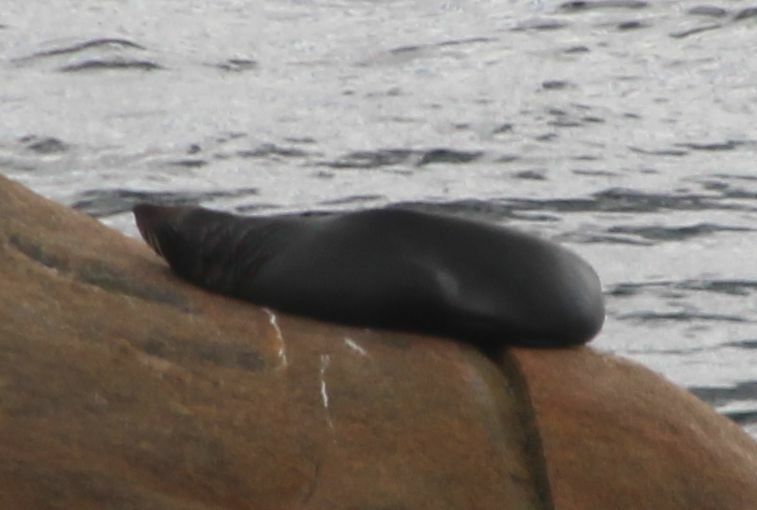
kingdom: Animalia
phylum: Chordata
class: Mammalia
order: Carnivora
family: Otariidae
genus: Arctocephalus
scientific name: Arctocephalus forsteri
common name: New zealand fur seal
